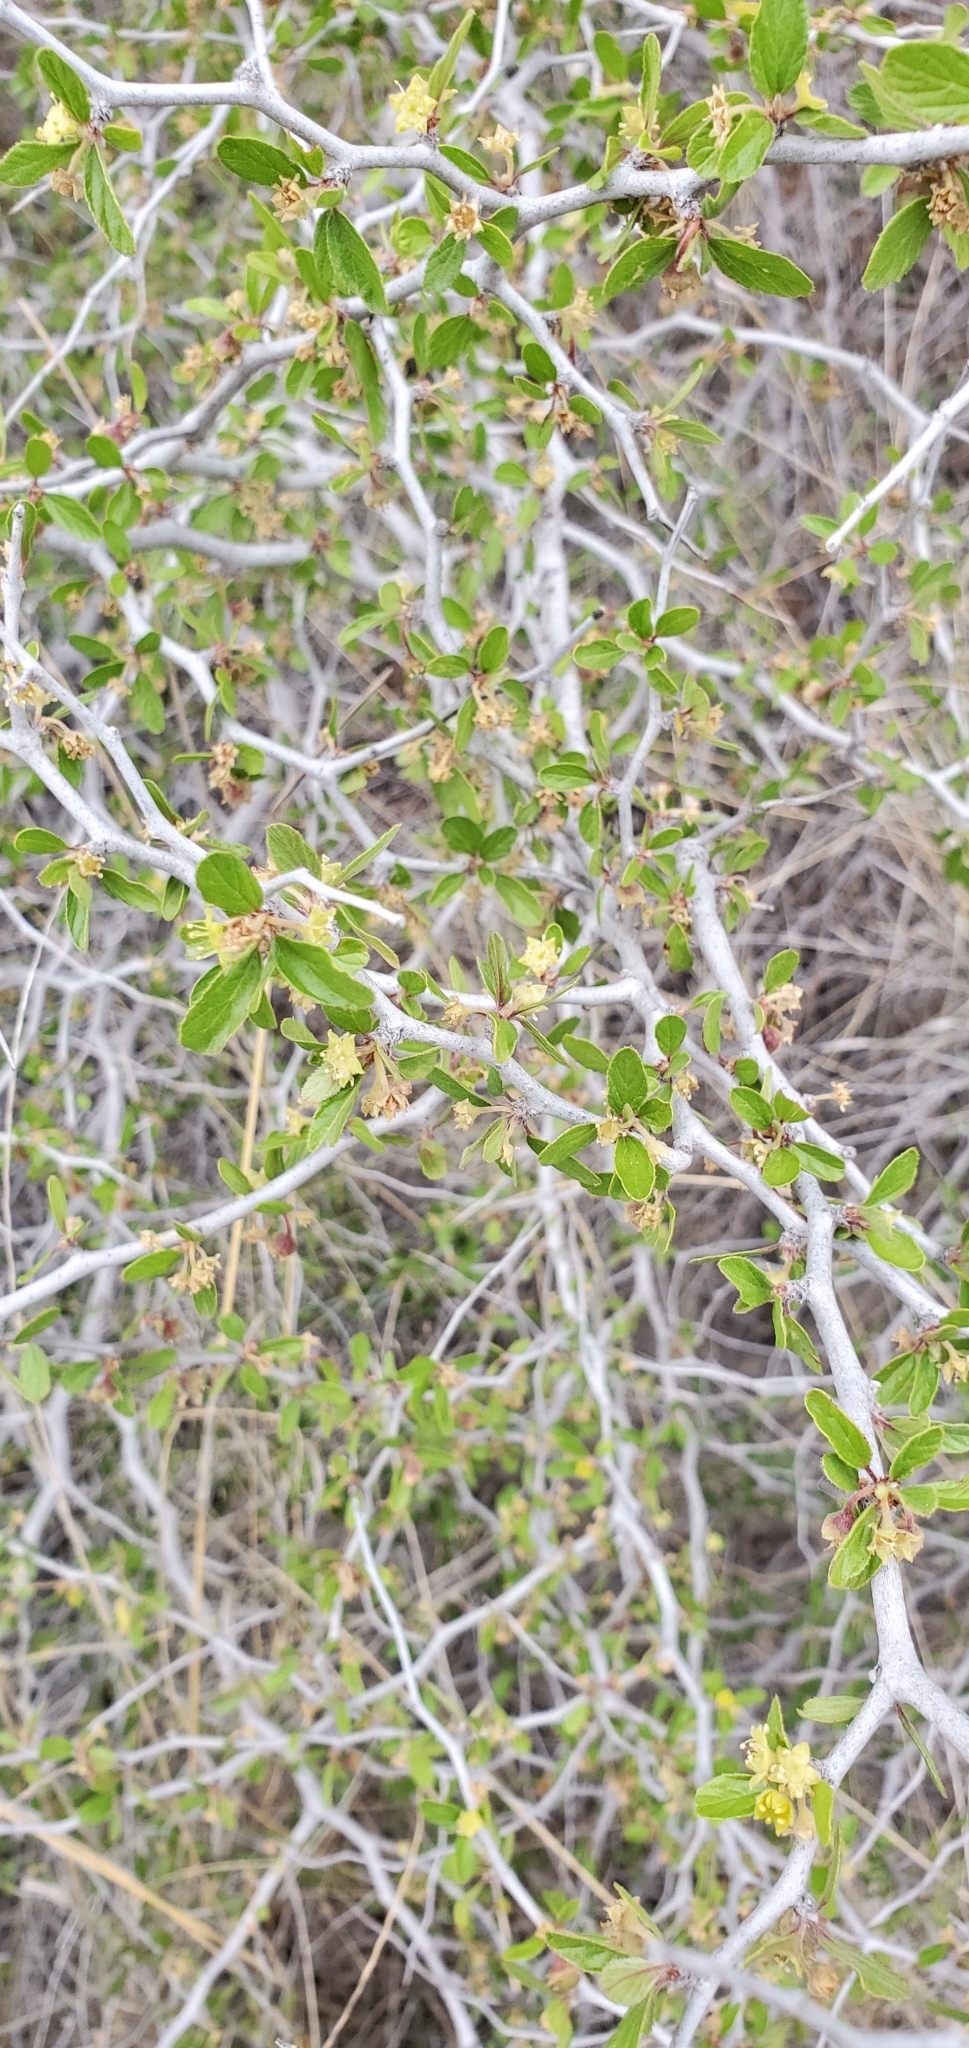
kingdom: Plantae
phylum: Tracheophyta
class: Magnoliopsida
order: Rosales
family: Rhamnaceae
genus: Colubrina
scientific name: Colubrina texensis
